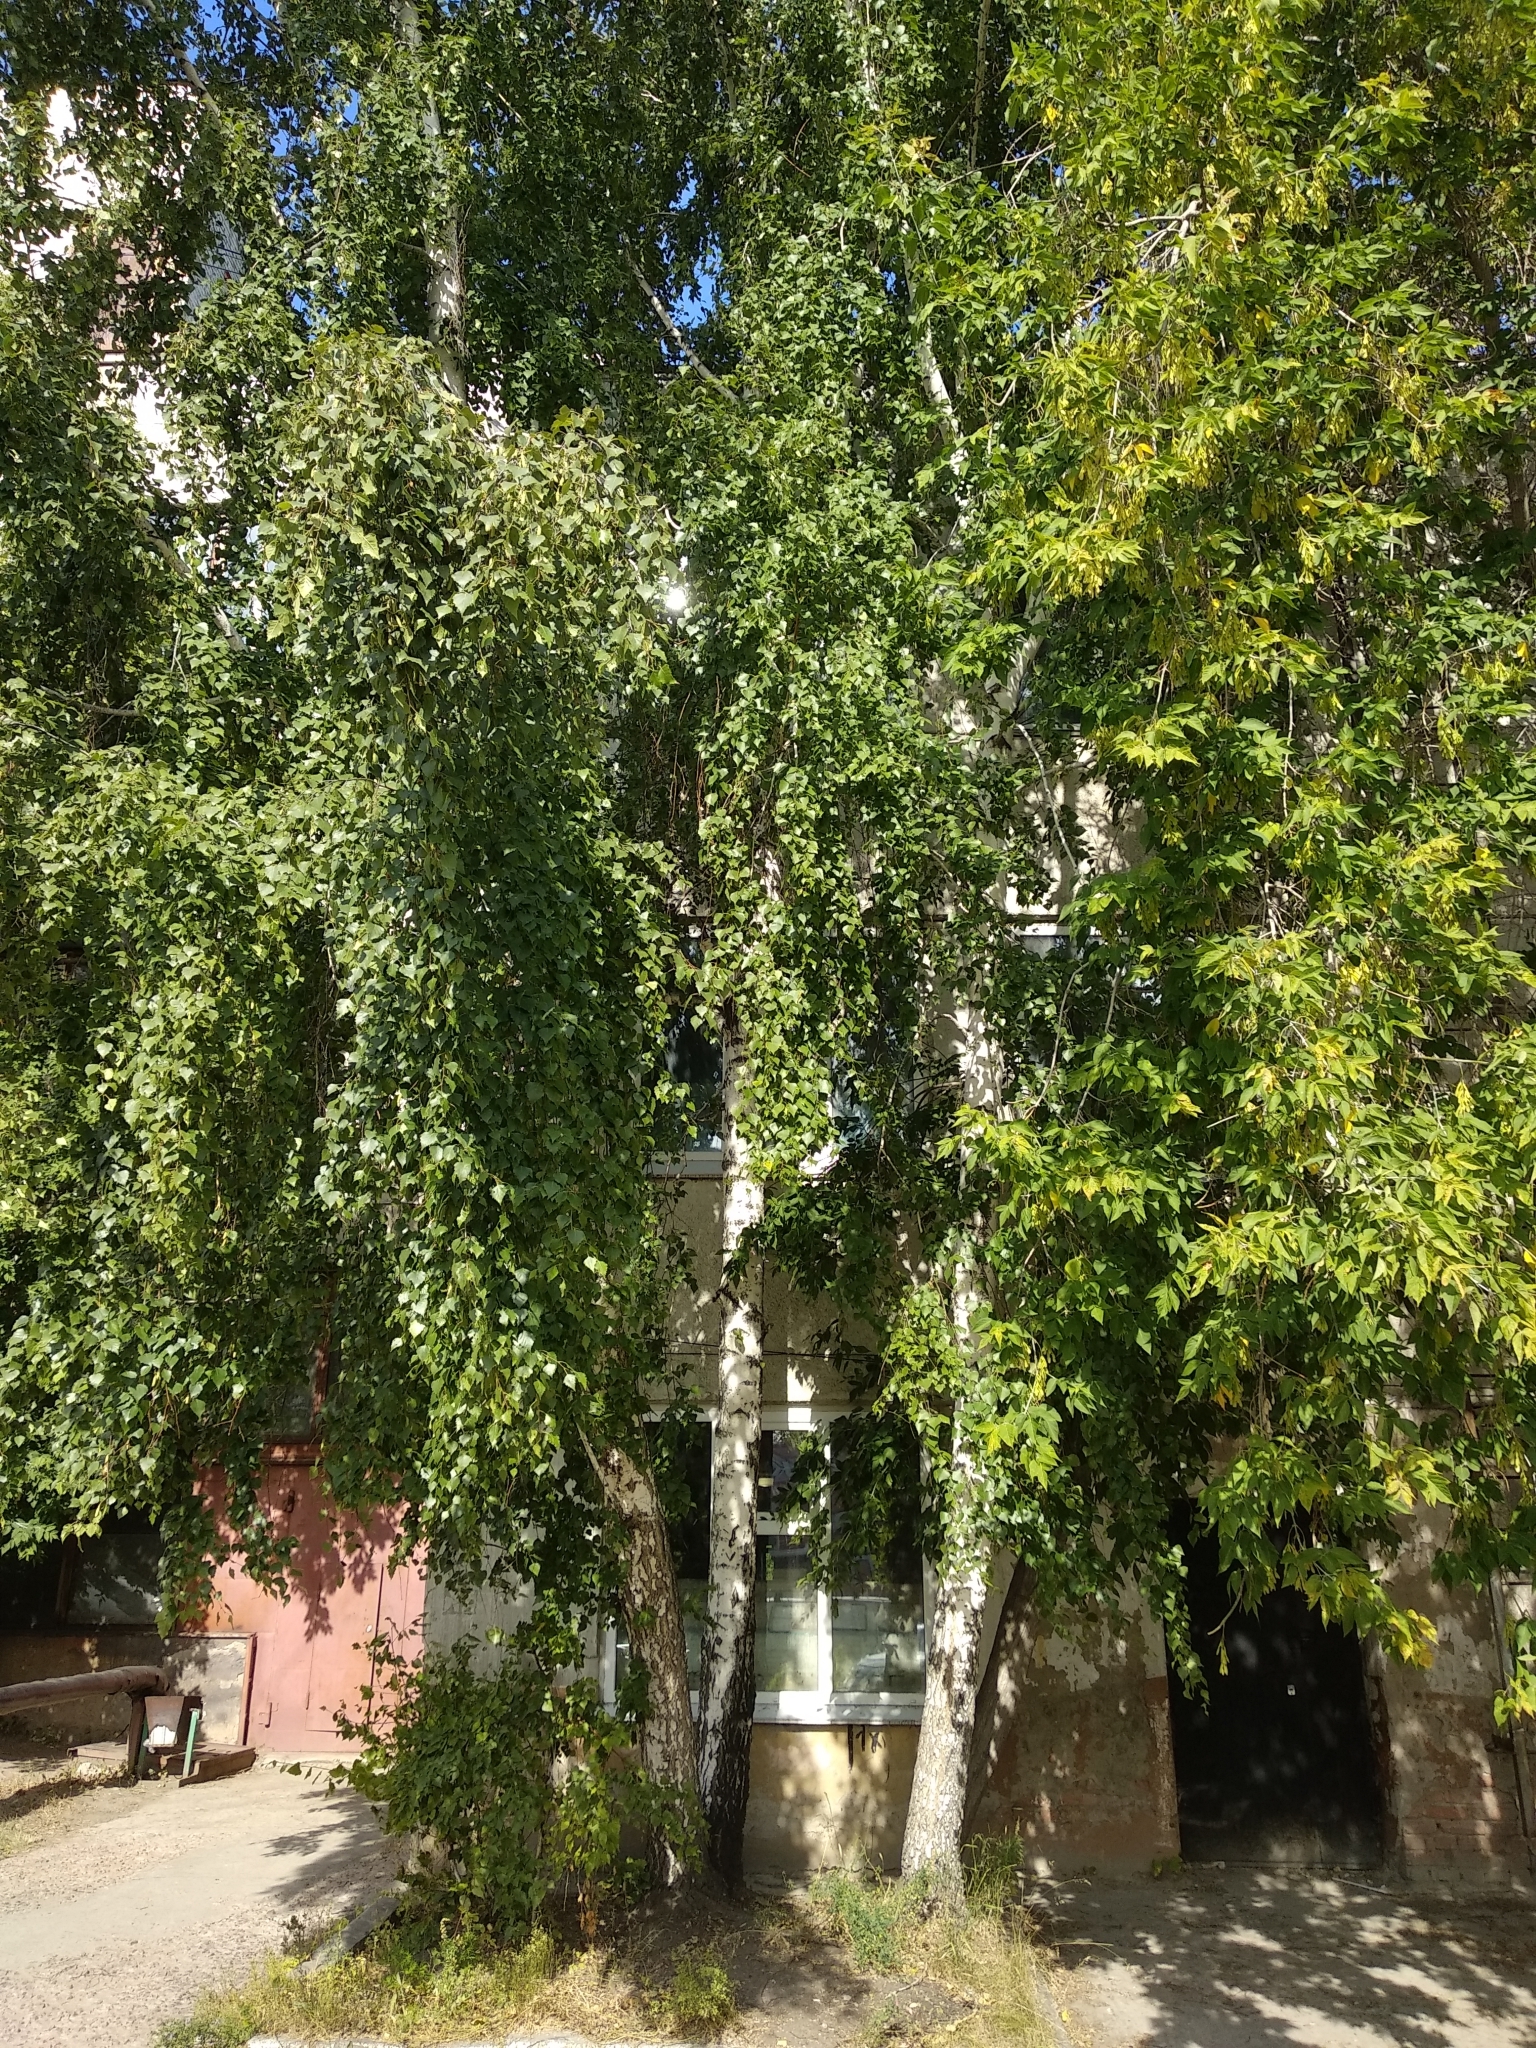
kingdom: Plantae
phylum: Tracheophyta
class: Magnoliopsida
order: Fagales
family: Betulaceae
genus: Betula
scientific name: Betula pendula
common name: Silver birch
